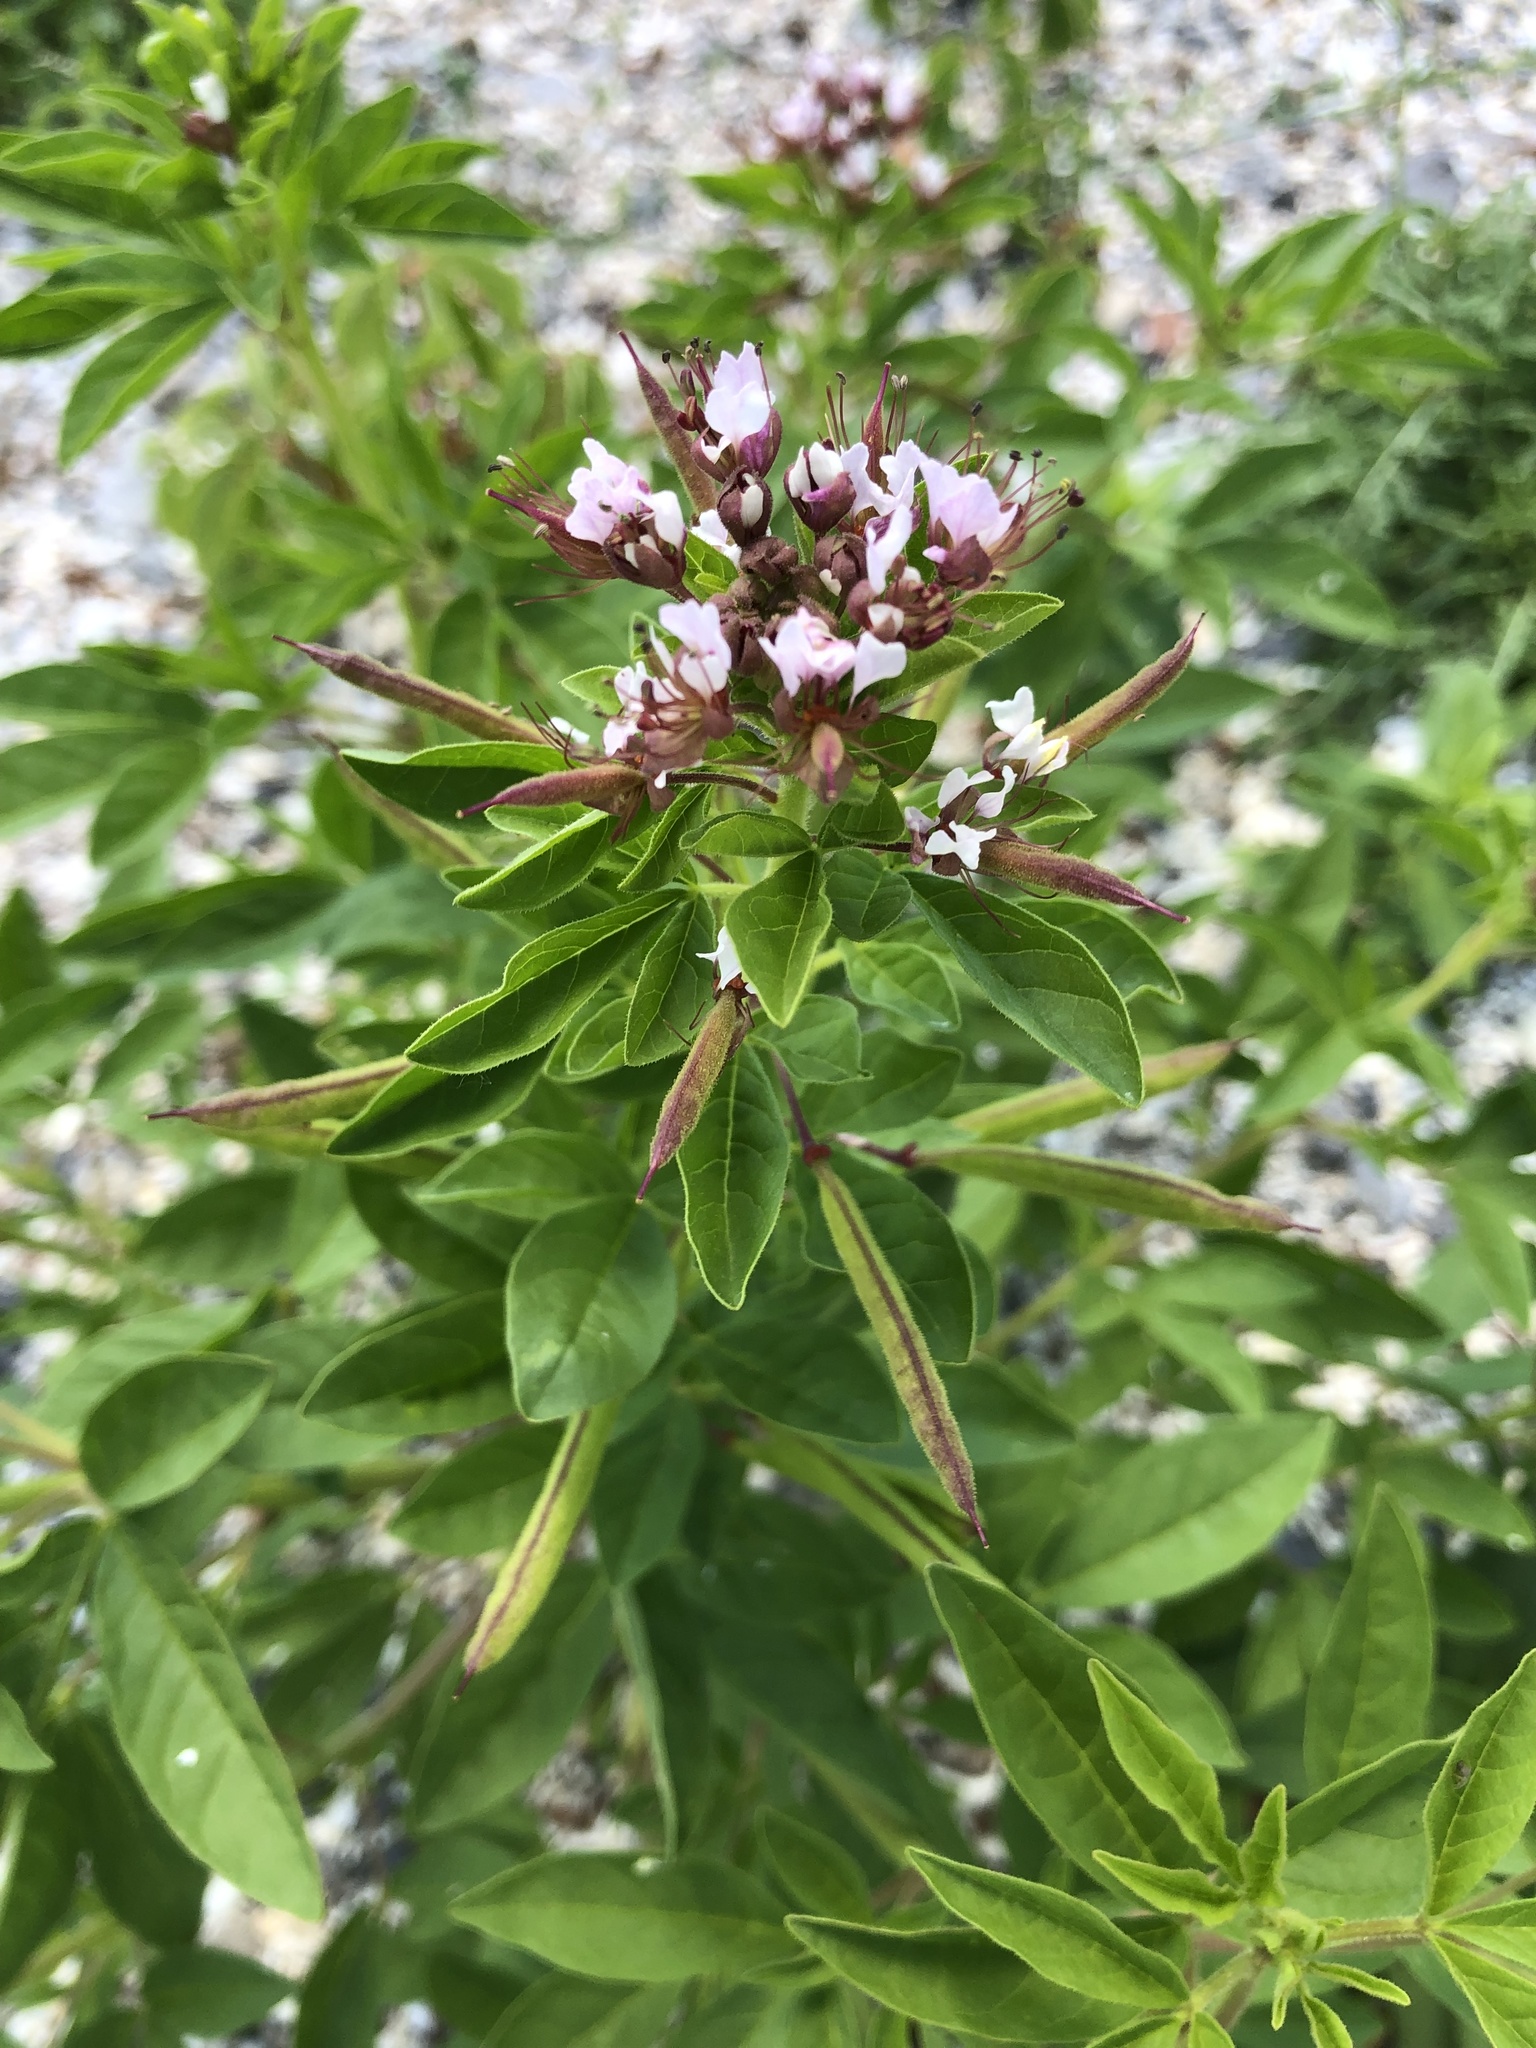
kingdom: Plantae
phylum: Tracheophyta
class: Magnoliopsida
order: Brassicales
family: Cleomaceae
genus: Polanisia
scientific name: Polanisia dodecandra
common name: Clammyweed
